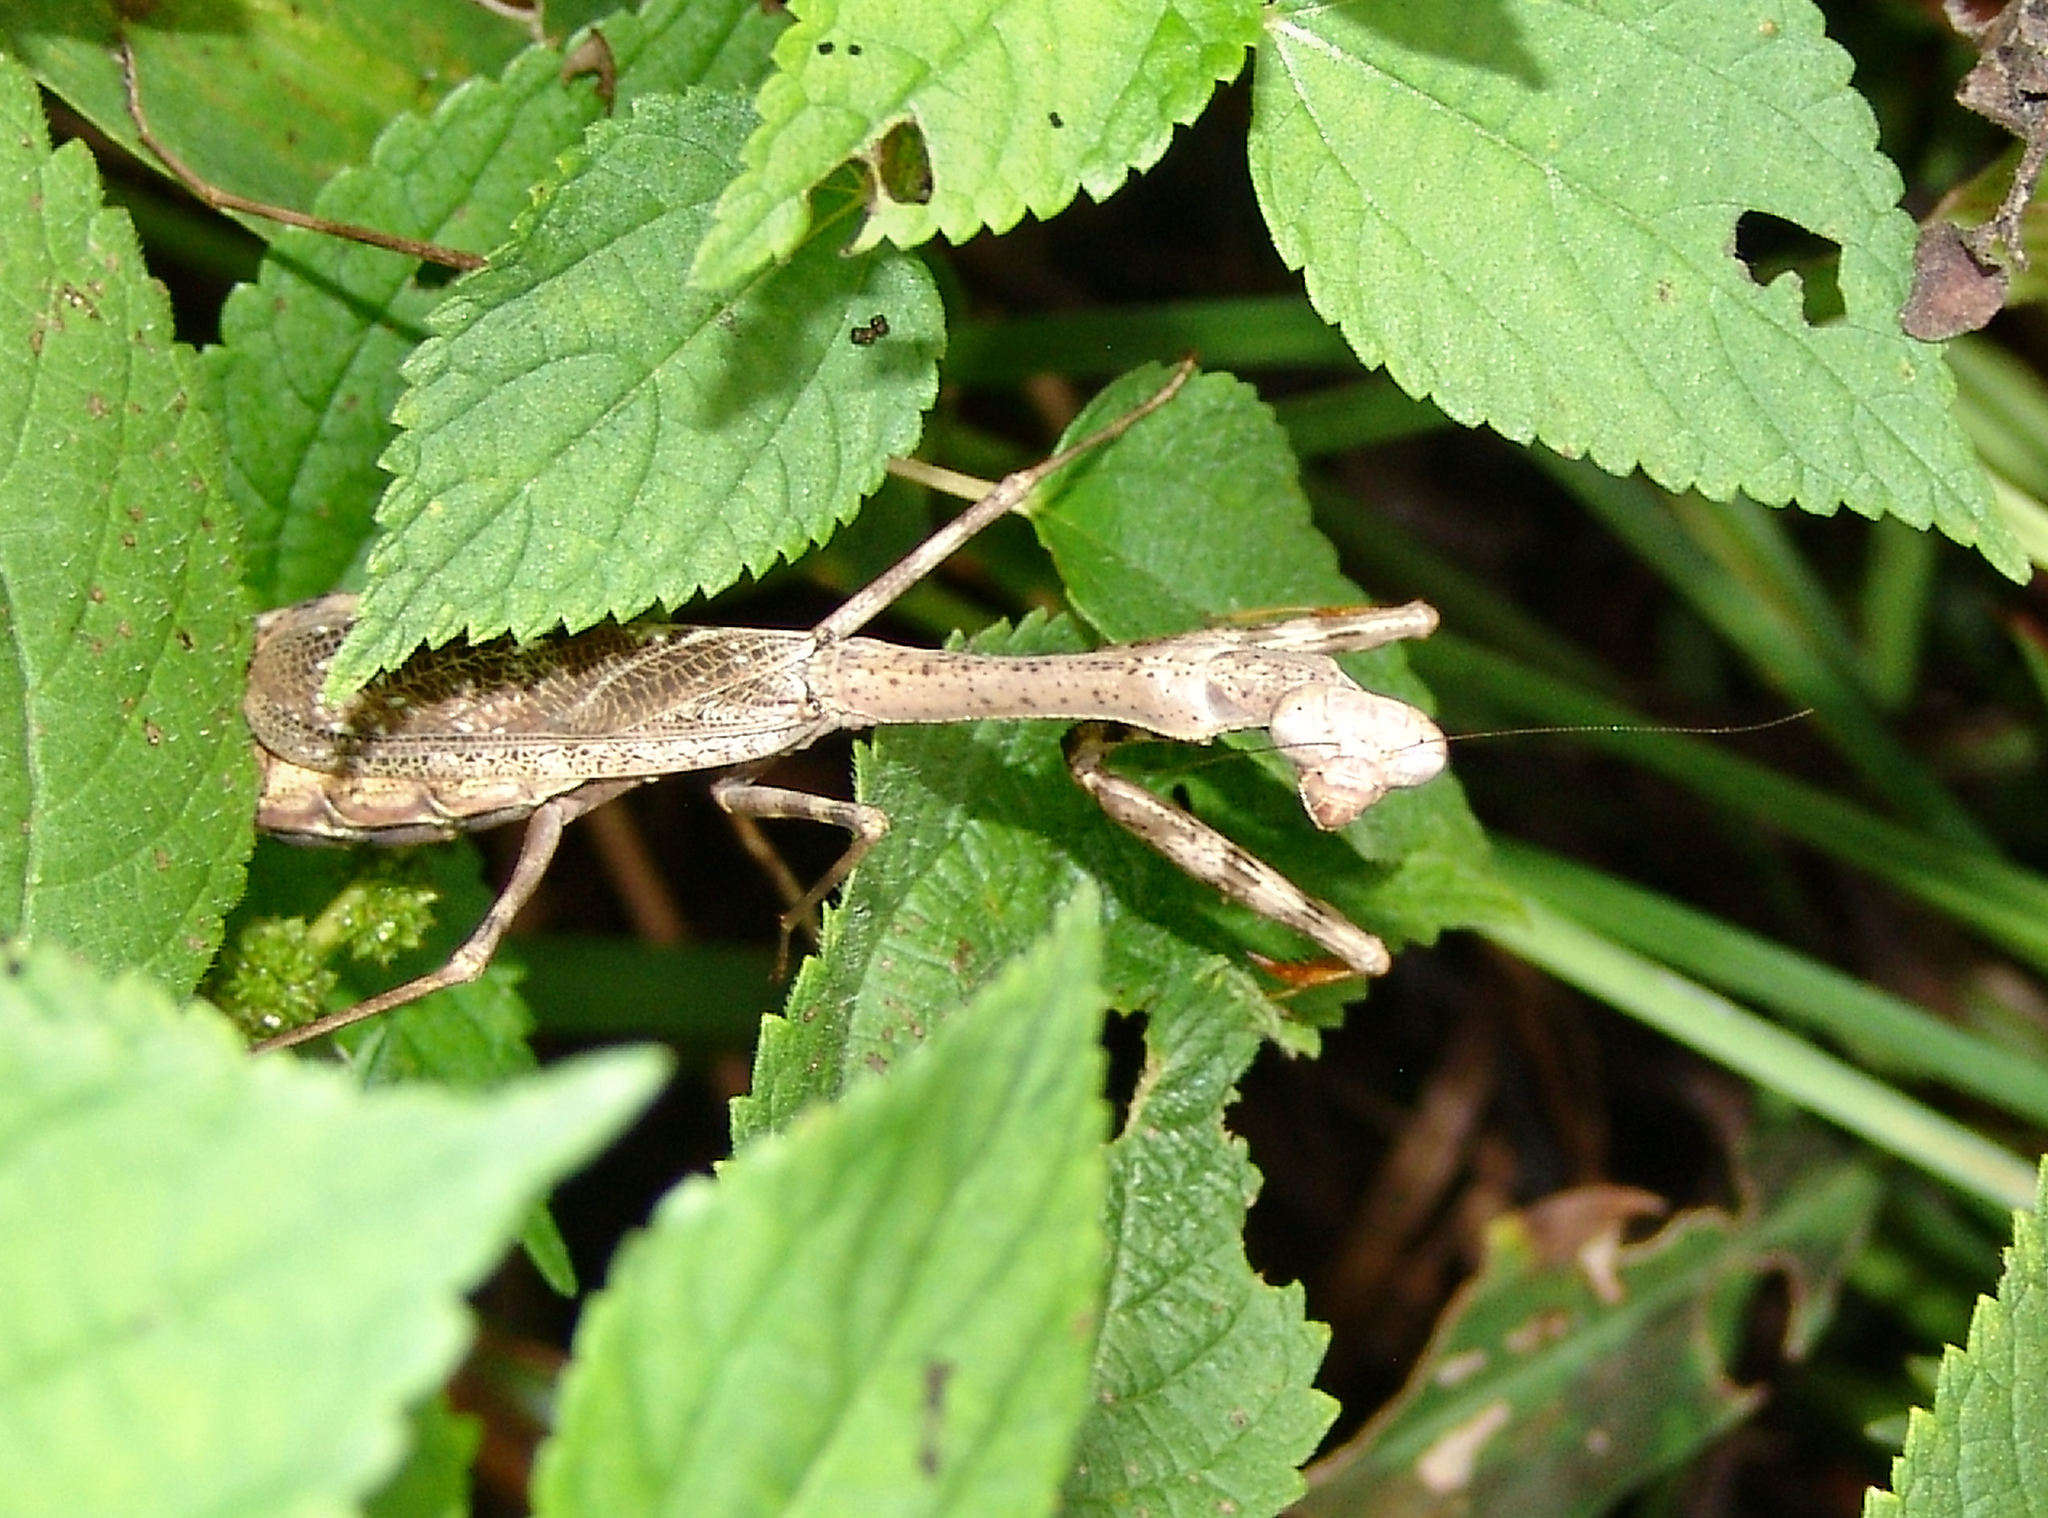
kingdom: Animalia
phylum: Arthropoda
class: Insecta
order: Mantodea
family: Mantidae
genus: Stagmomantis
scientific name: Stagmomantis carolina
